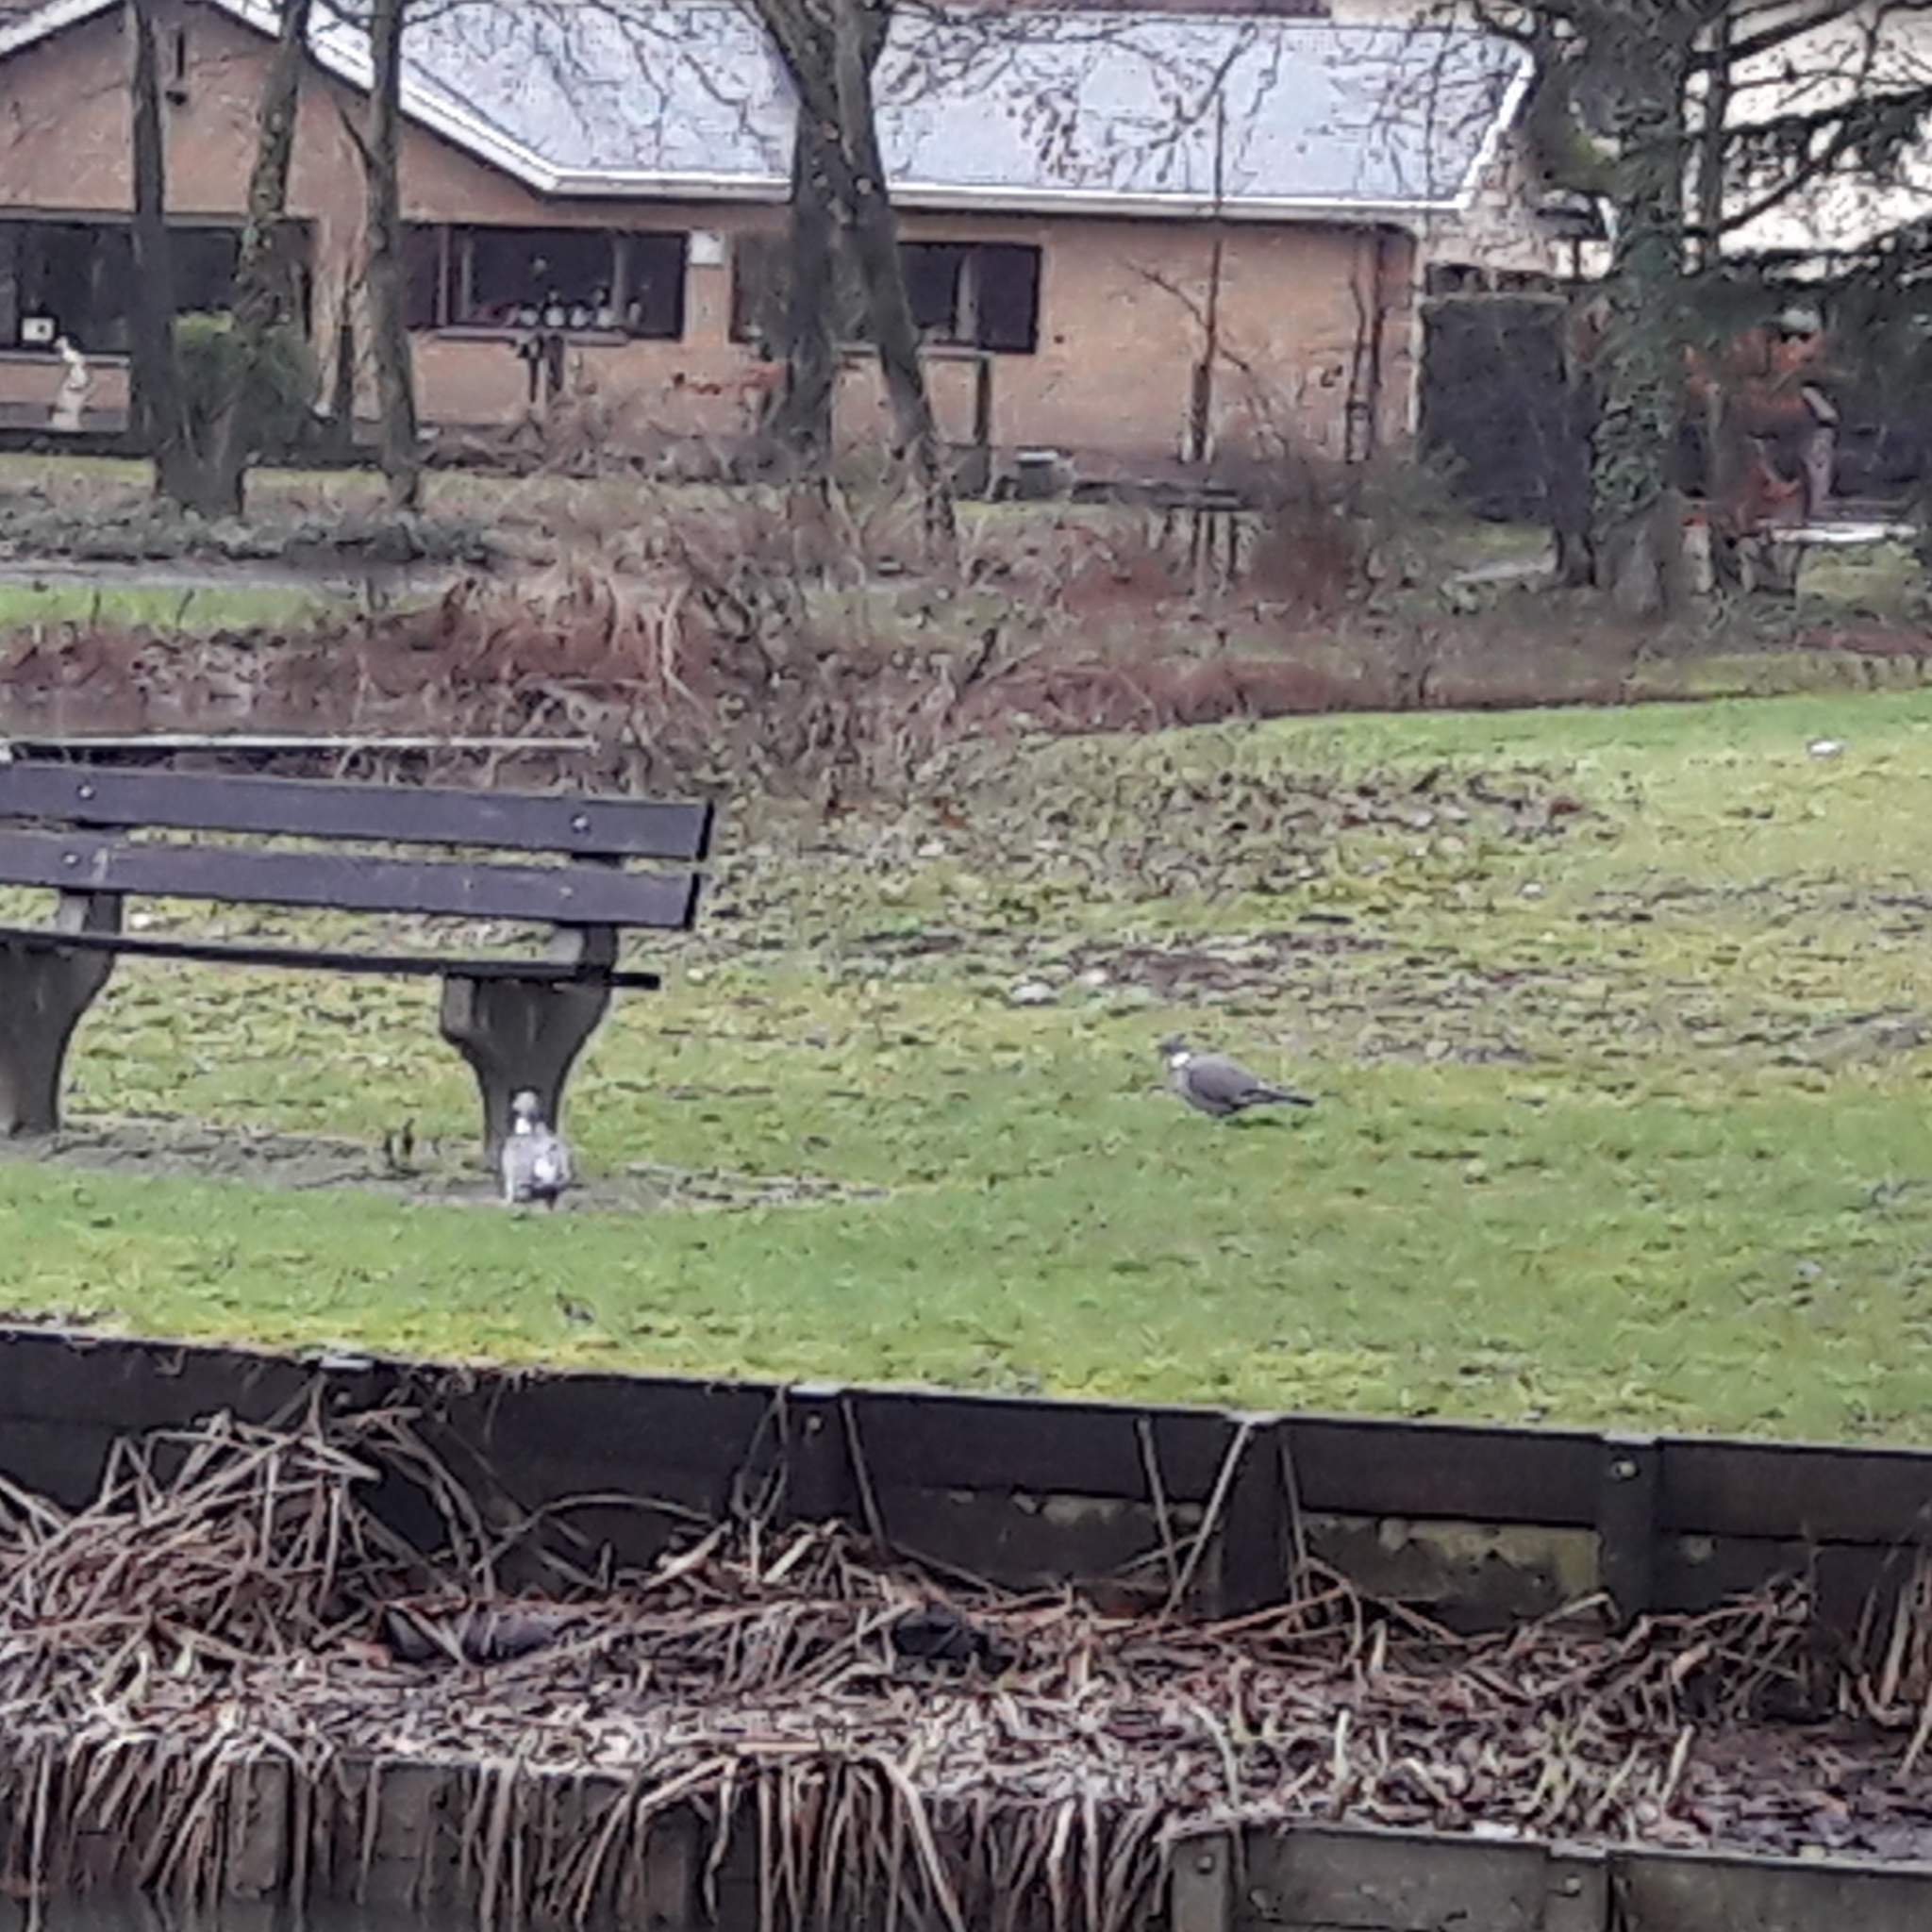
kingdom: Animalia
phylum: Chordata
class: Aves
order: Columbiformes
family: Columbidae
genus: Columba
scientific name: Columba palumbus
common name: Common wood pigeon
